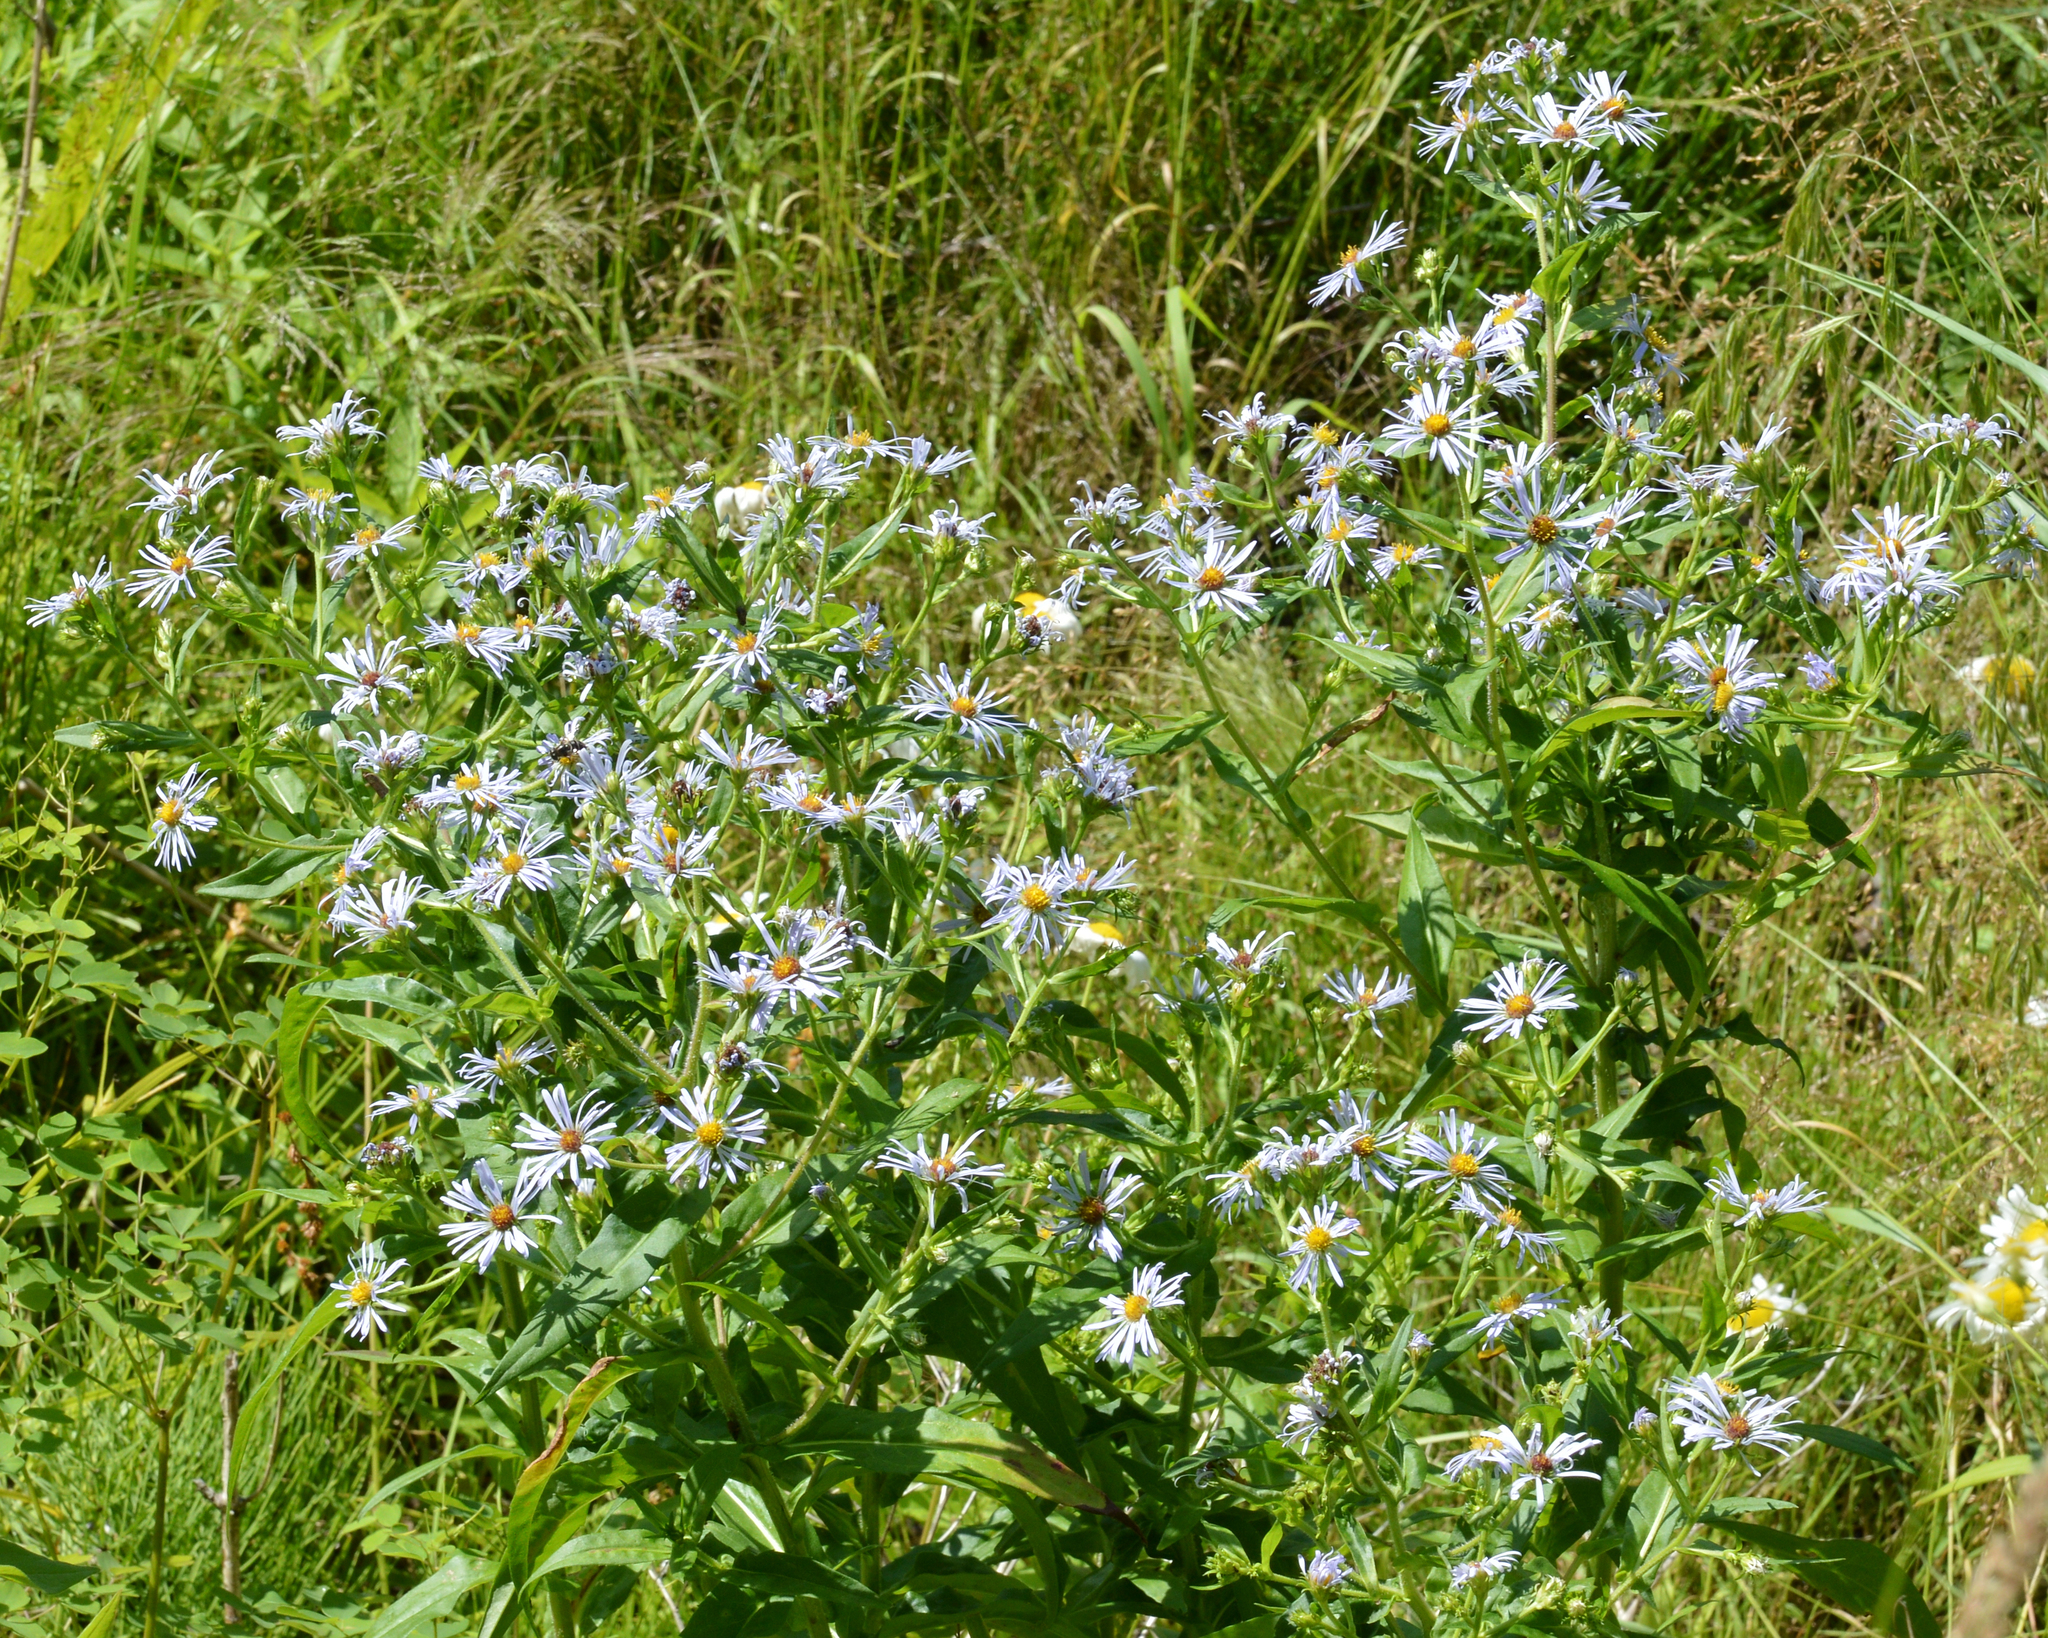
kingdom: Plantae
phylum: Tracheophyta
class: Magnoliopsida
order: Asterales
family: Asteraceae
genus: Symphyotrichum
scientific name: Symphyotrichum puniceum
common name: Bog aster
